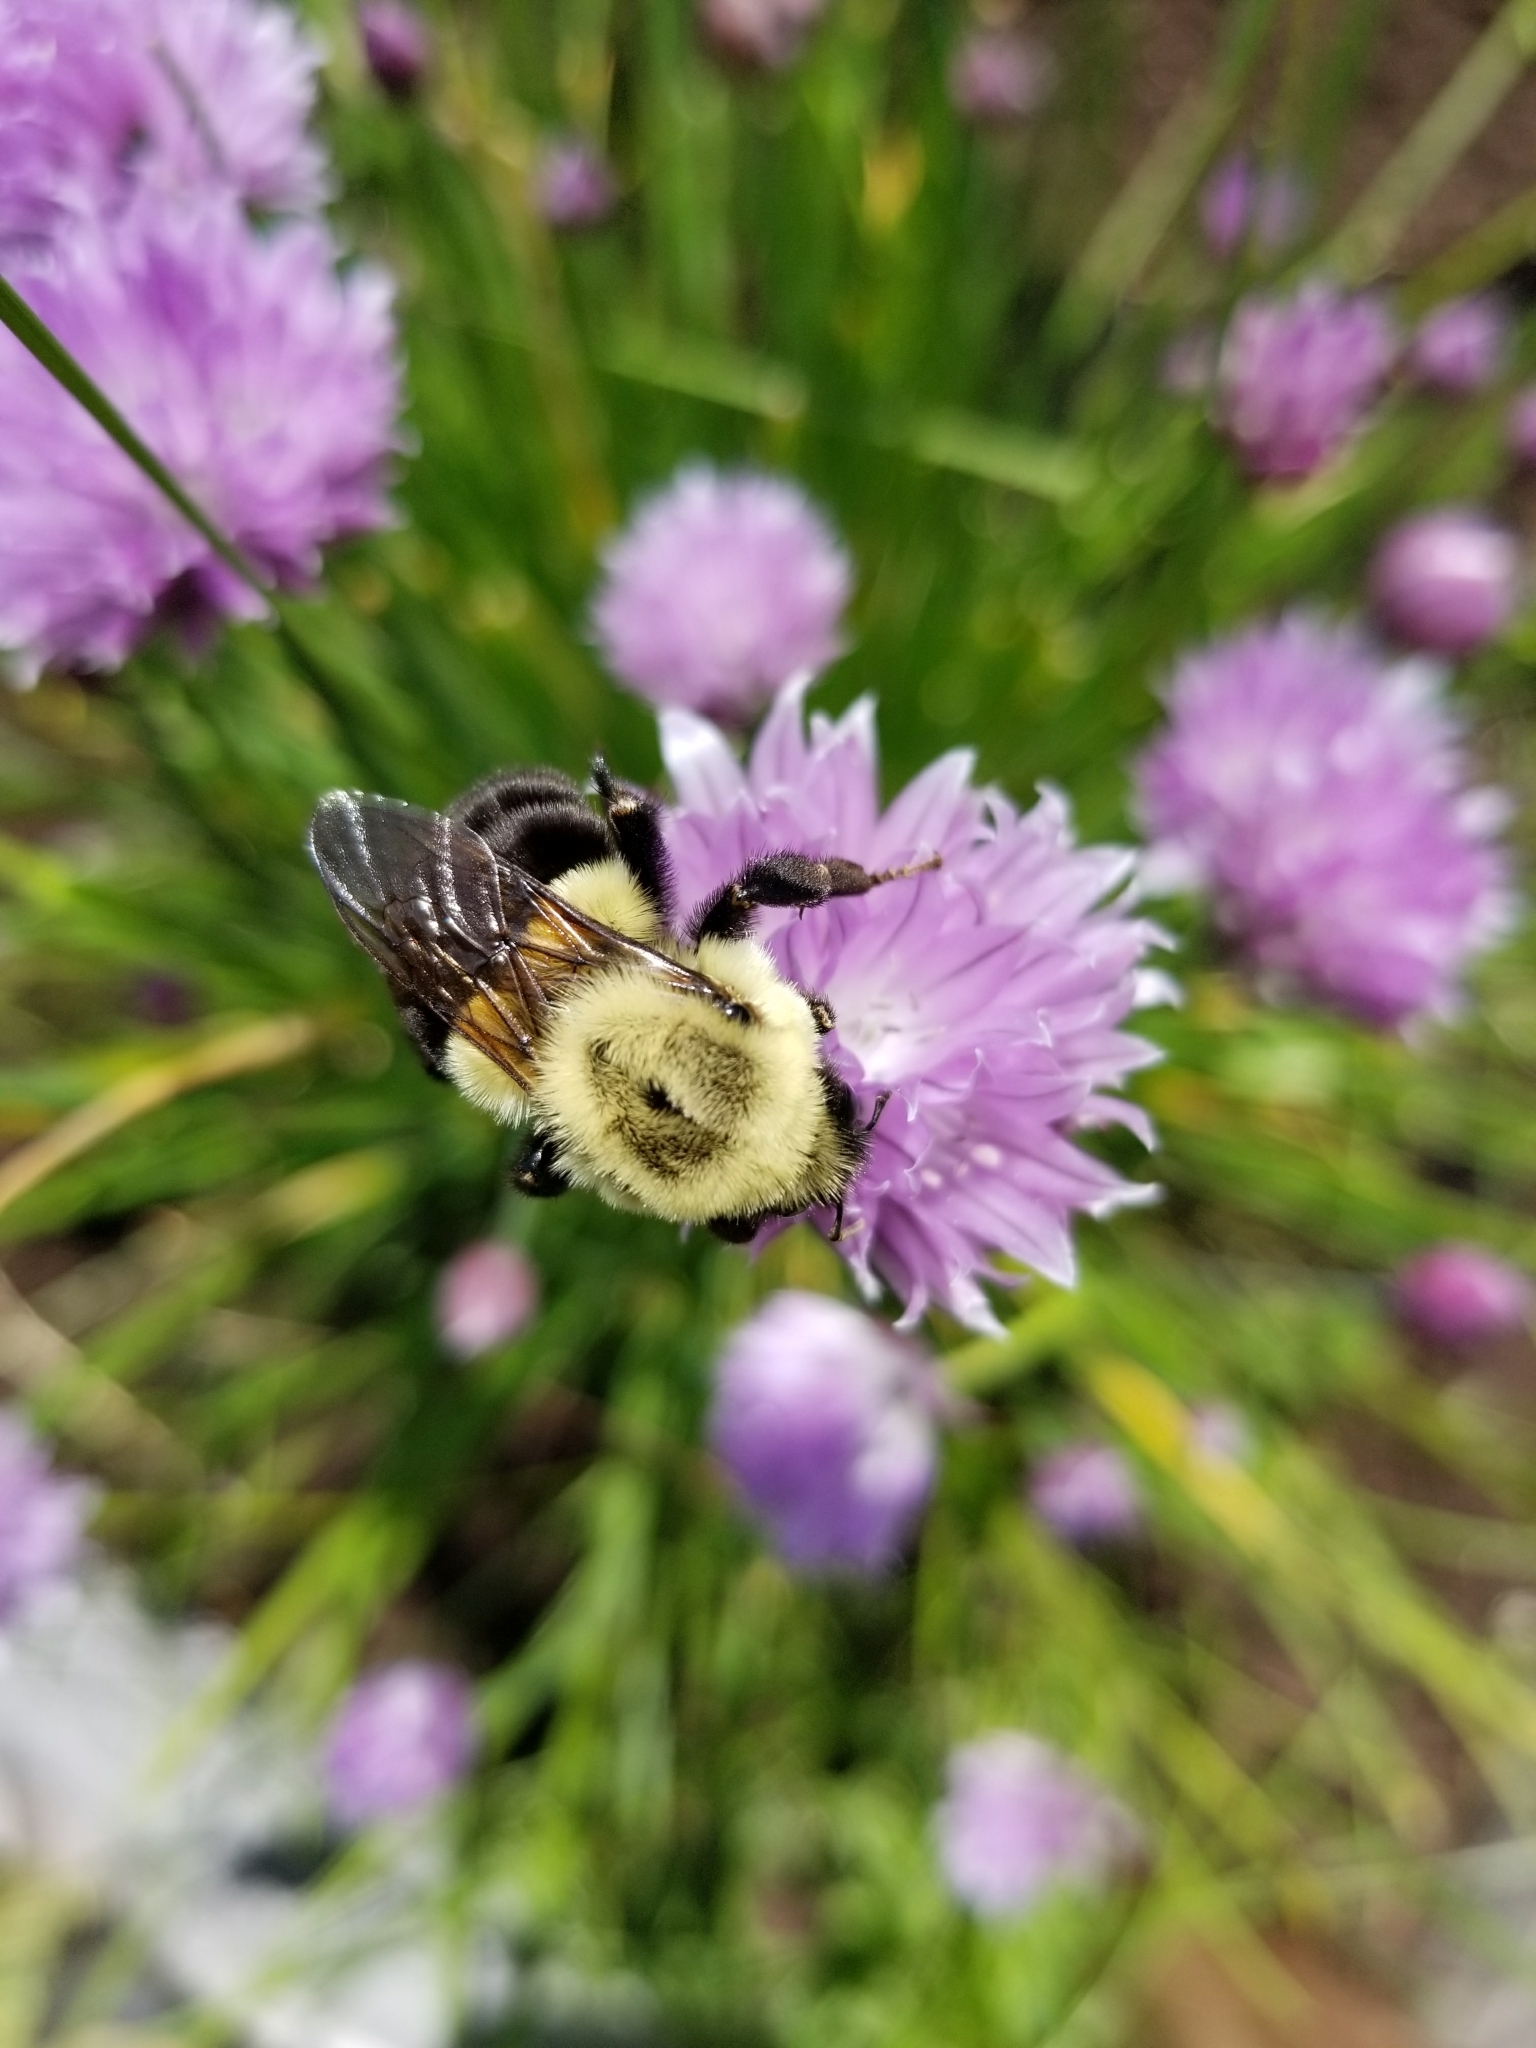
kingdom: Animalia
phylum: Arthropoda
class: Insecta
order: Hymenoptera
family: Apidae
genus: Bombus
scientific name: Bombus impatiens
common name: Common eastern bumble bee
